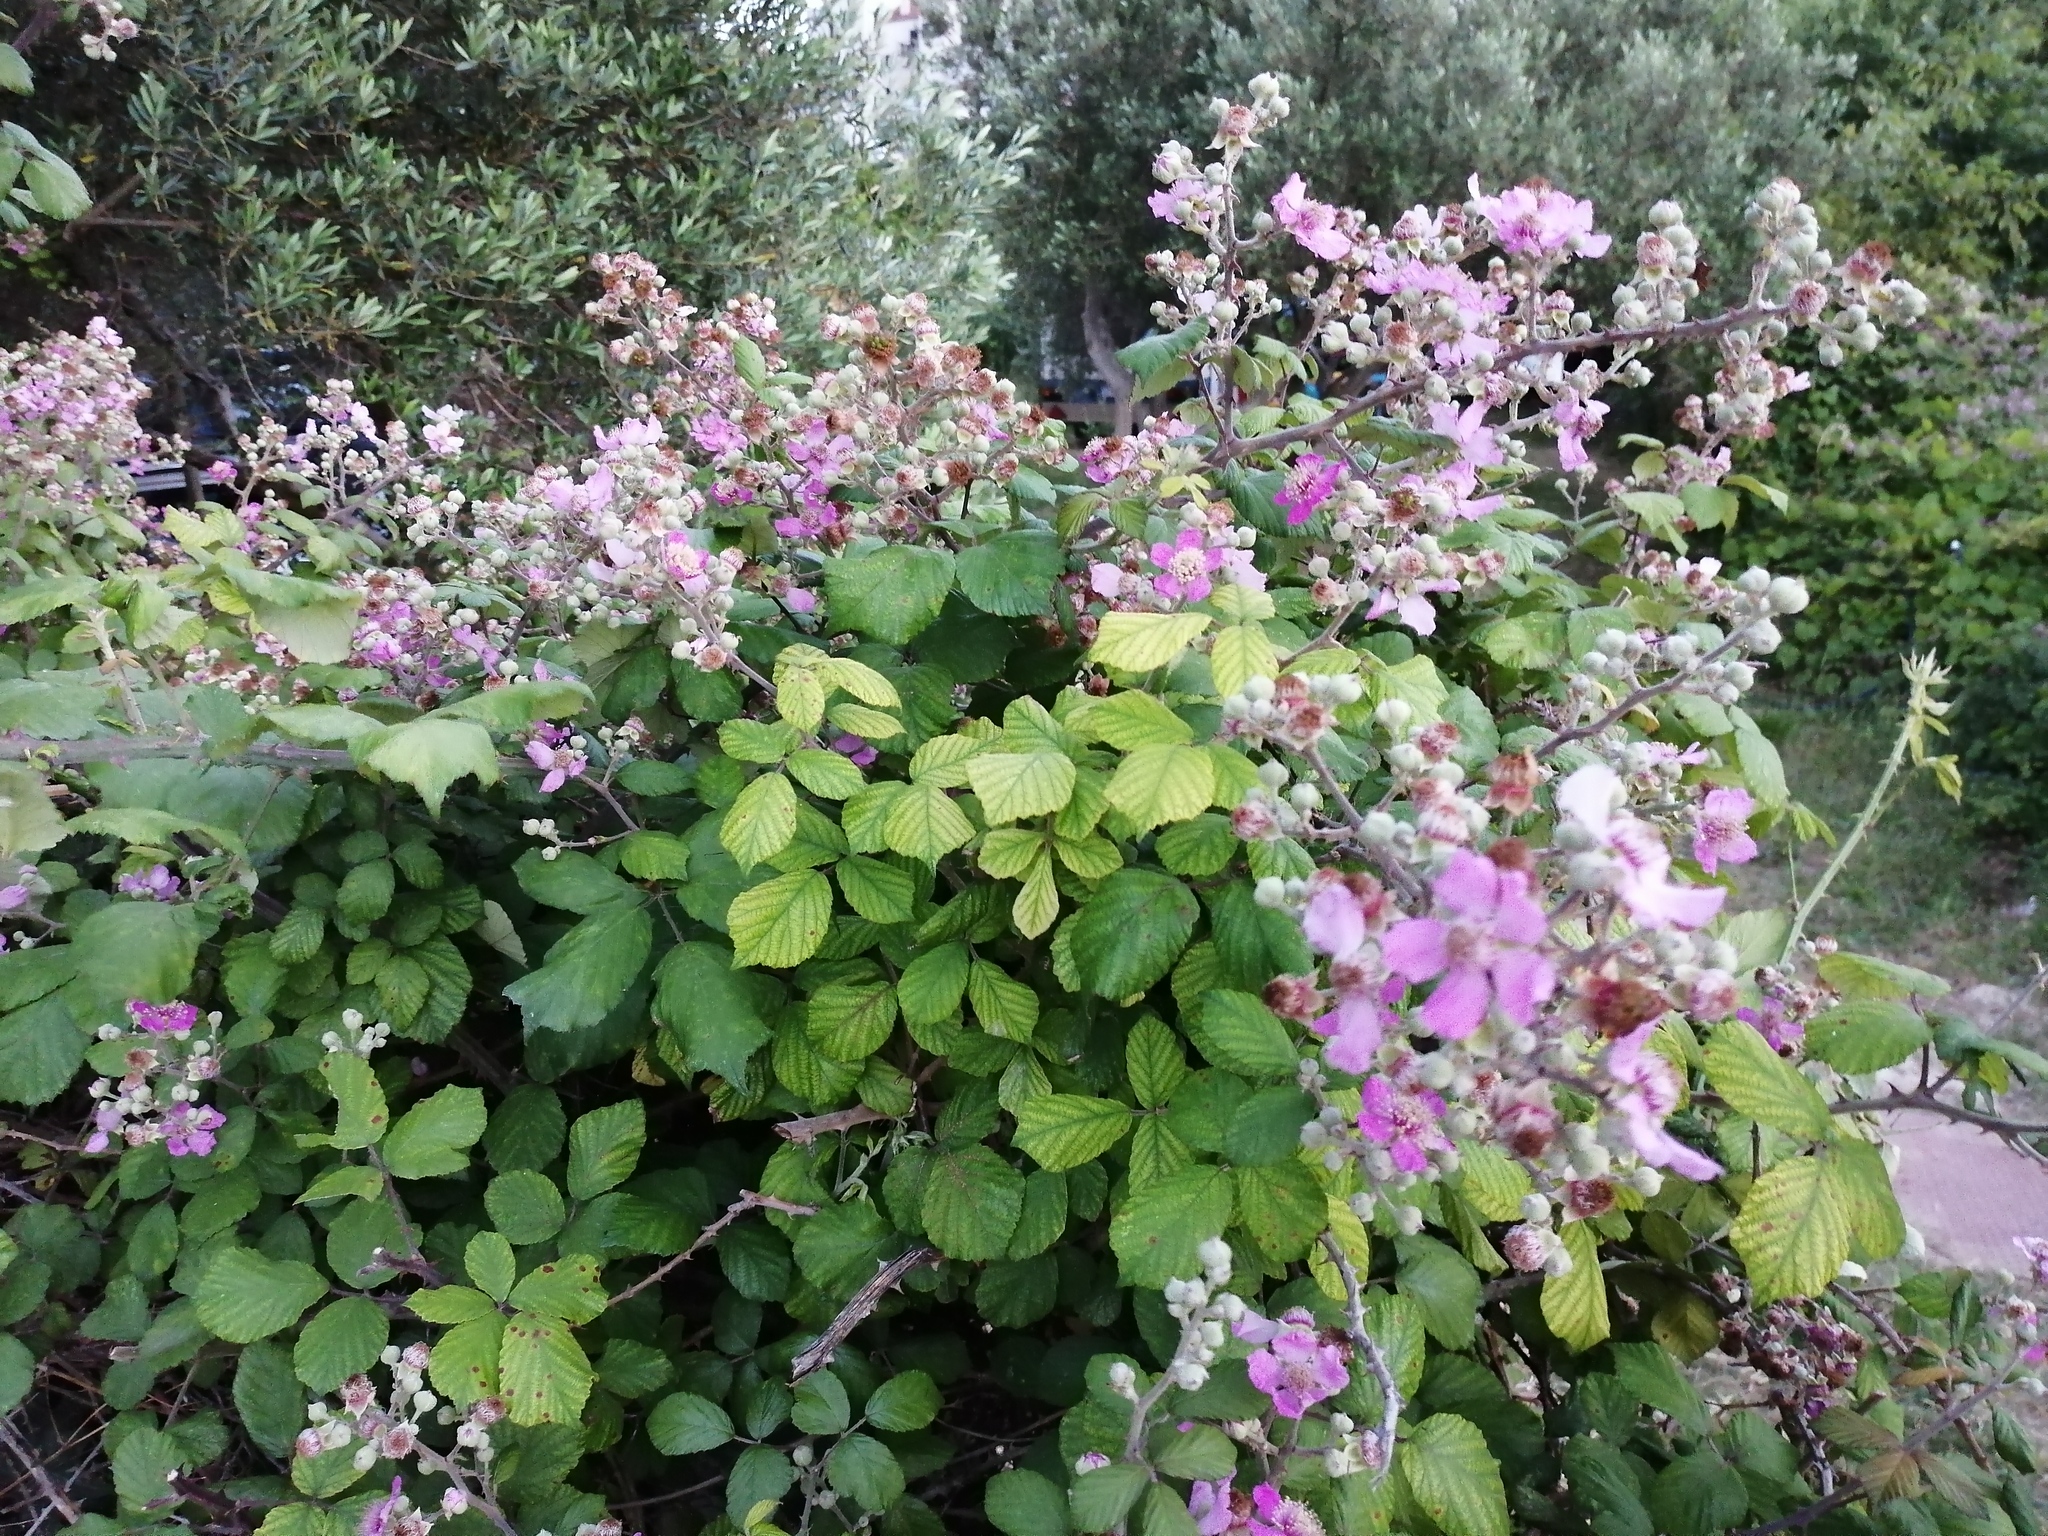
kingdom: Plantae
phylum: Tracheophyta
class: Magnoliopsida
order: Rosales
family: Rosaceae
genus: Rubus
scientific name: Rubus ulmifolius
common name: Elmleaf blackberry
